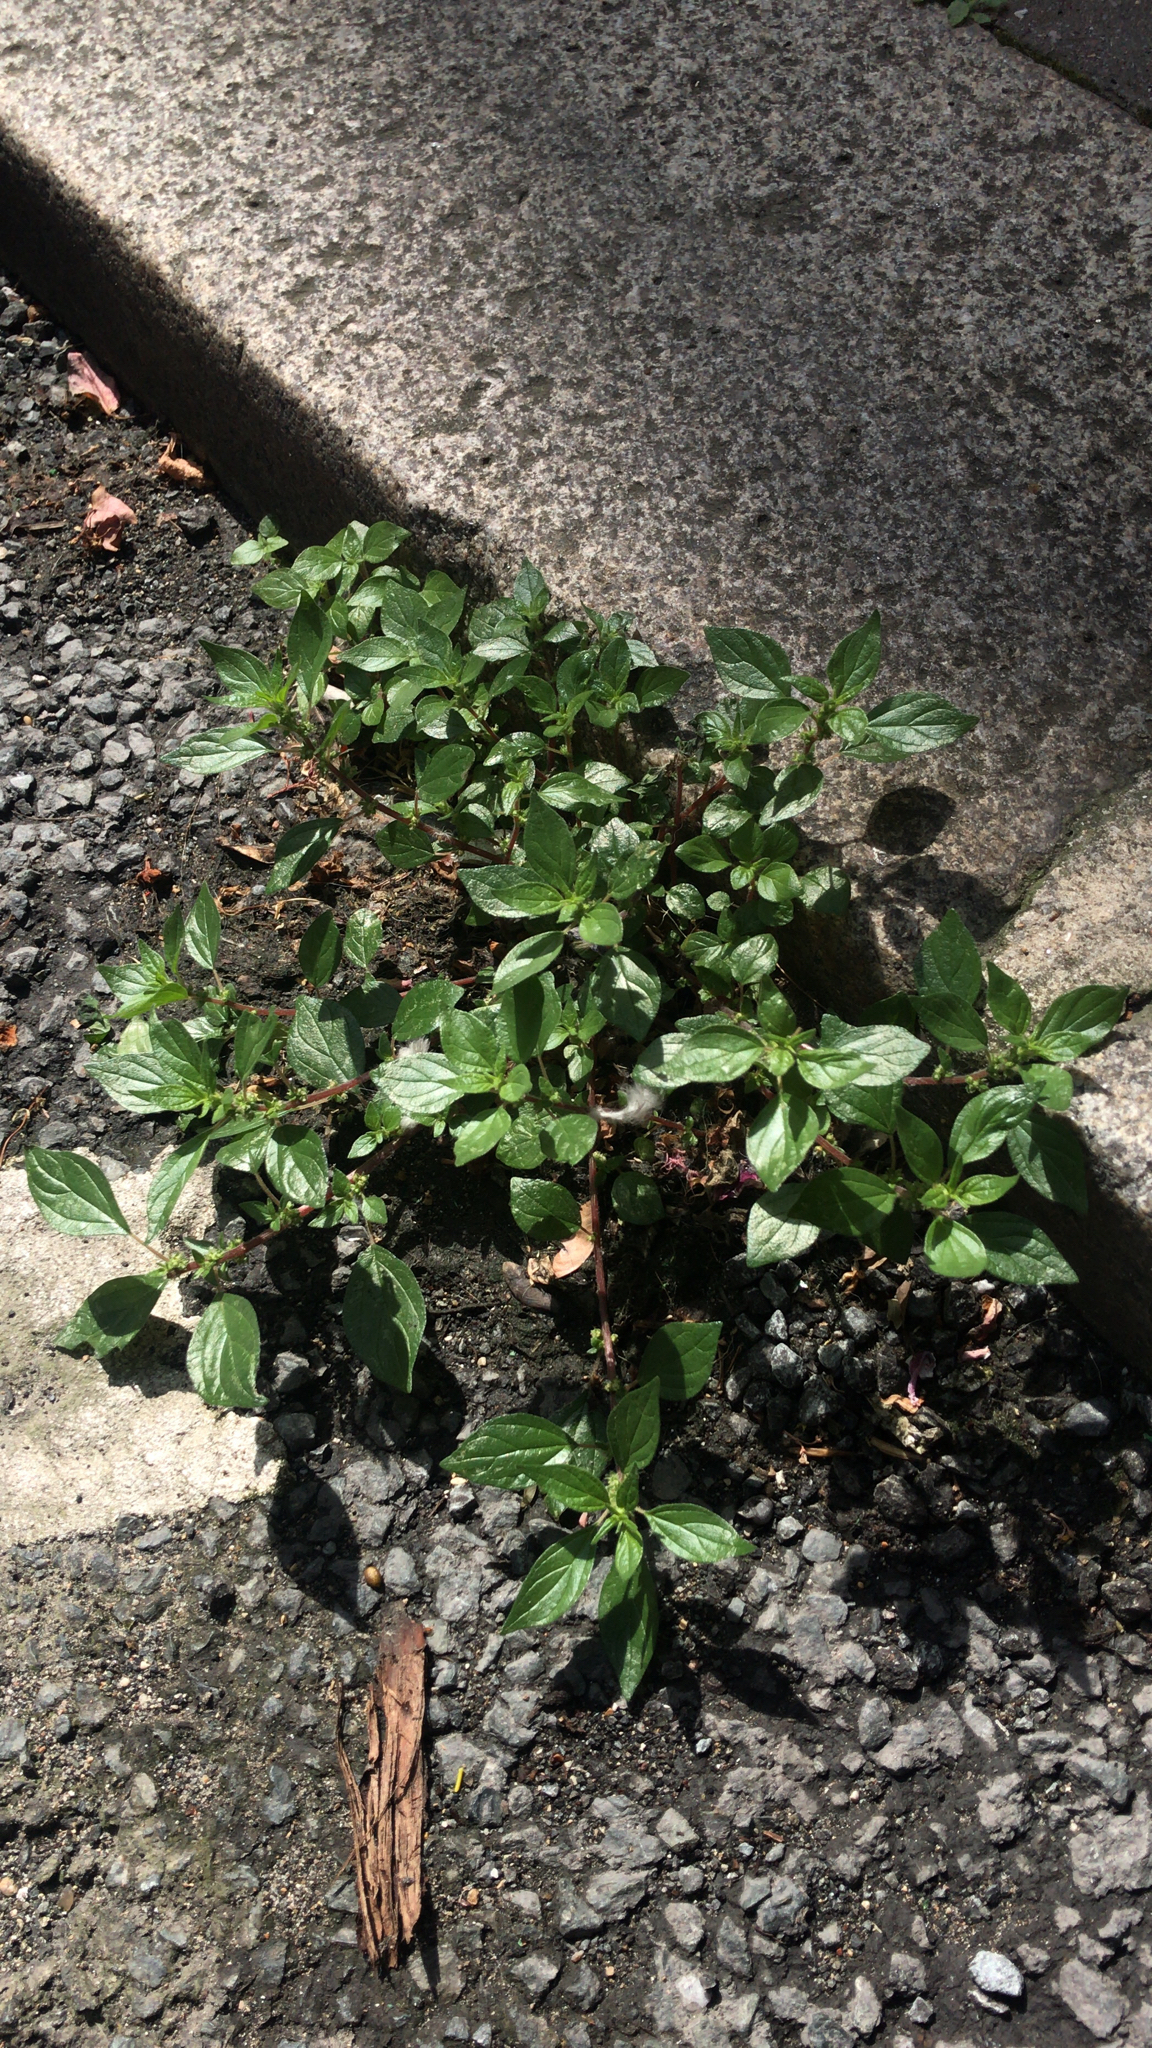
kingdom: Plantae
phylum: Tracheophyta
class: Magnoliopsida
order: Rosales
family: Urticaceae
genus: Parietaria
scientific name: Parietaria judaica
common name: Pellitory-of-the-wall
